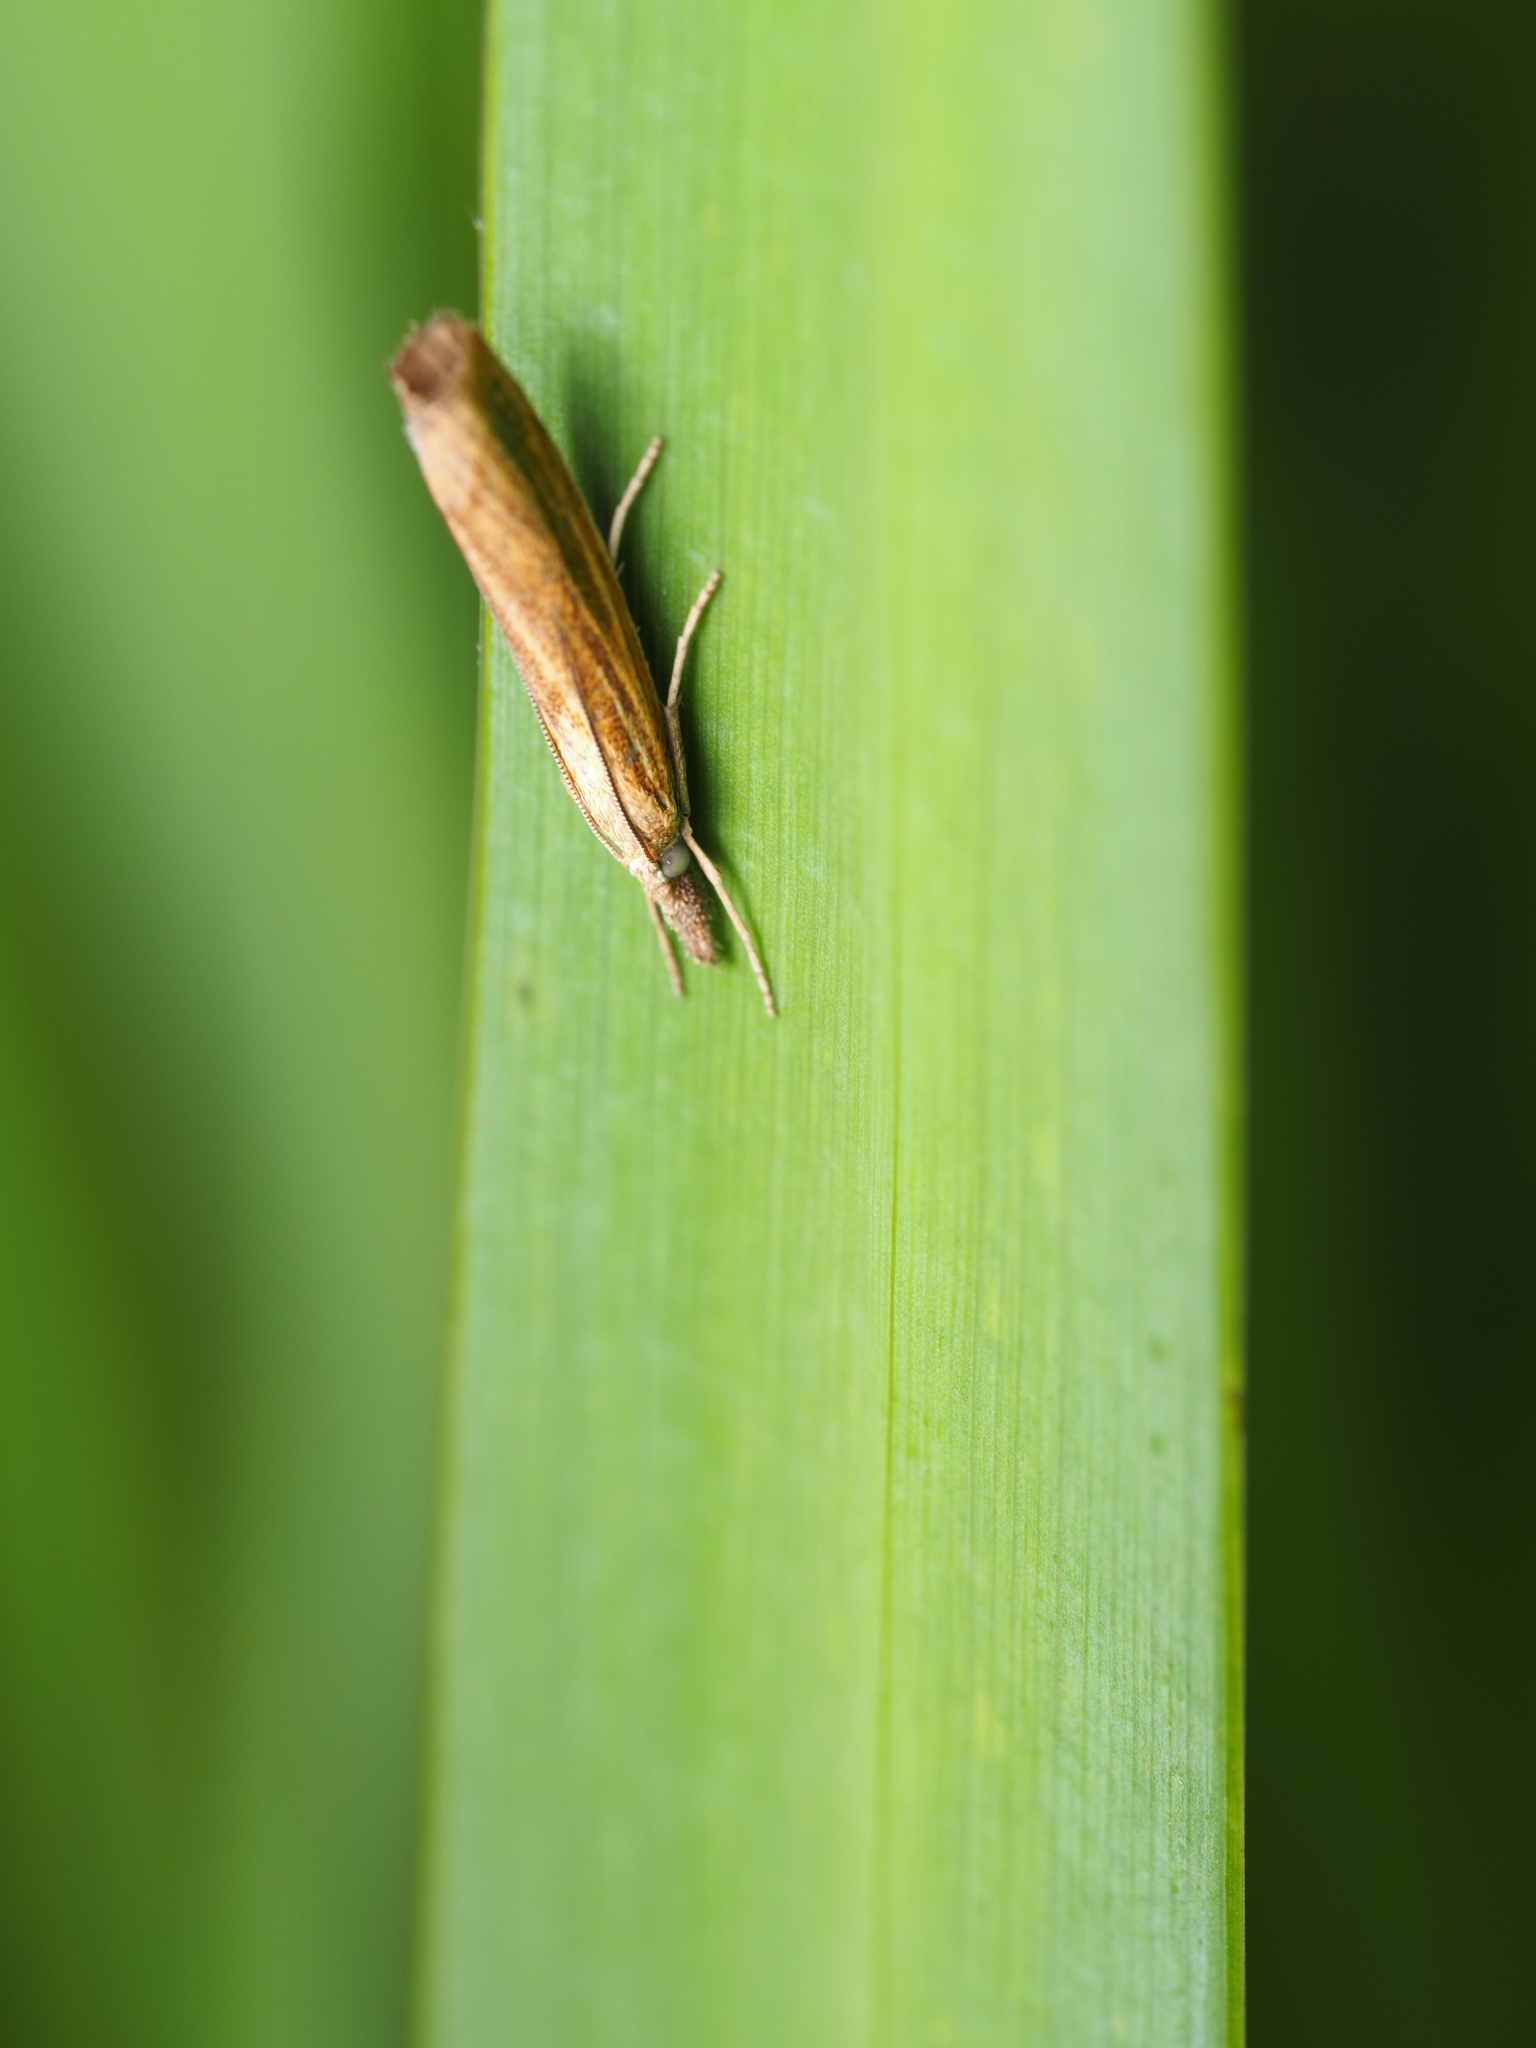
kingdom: Animalia
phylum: Arthropoda
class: Insecta
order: Lepidoptera
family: Crambidae
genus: Agriphila
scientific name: Agriphila tristellus
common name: Common grass-veneer
